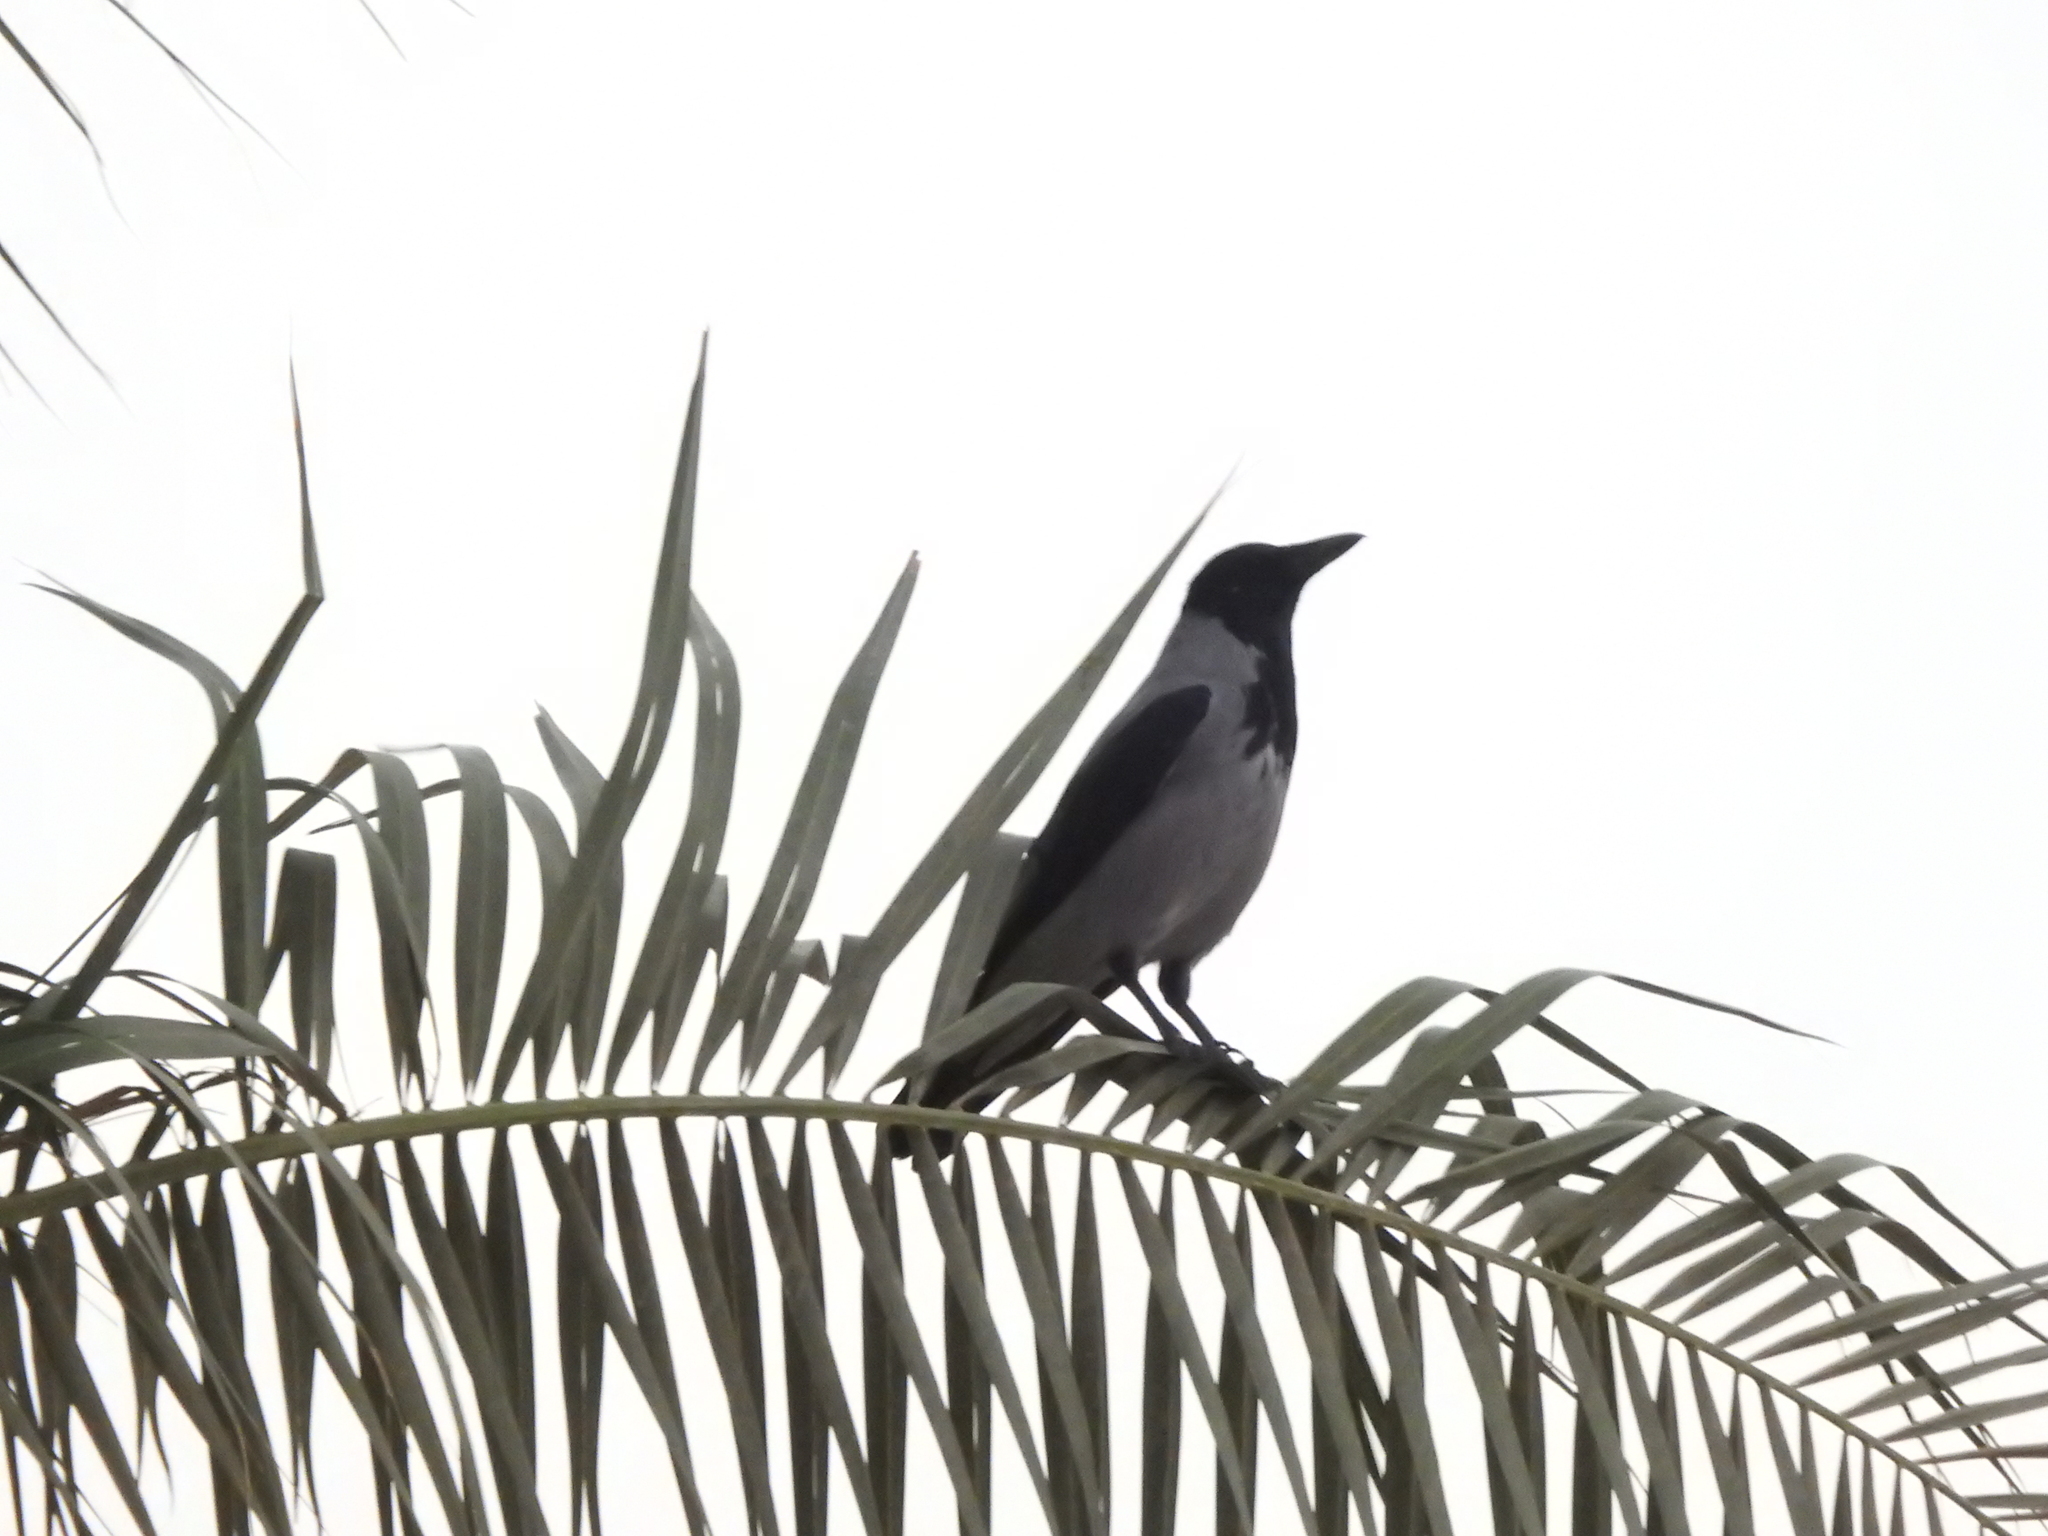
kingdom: Animalia
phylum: Chordata
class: Aves
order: Passeriformes
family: Corvidae
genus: Corvus
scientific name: Corvus cornix
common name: Hooded crow
